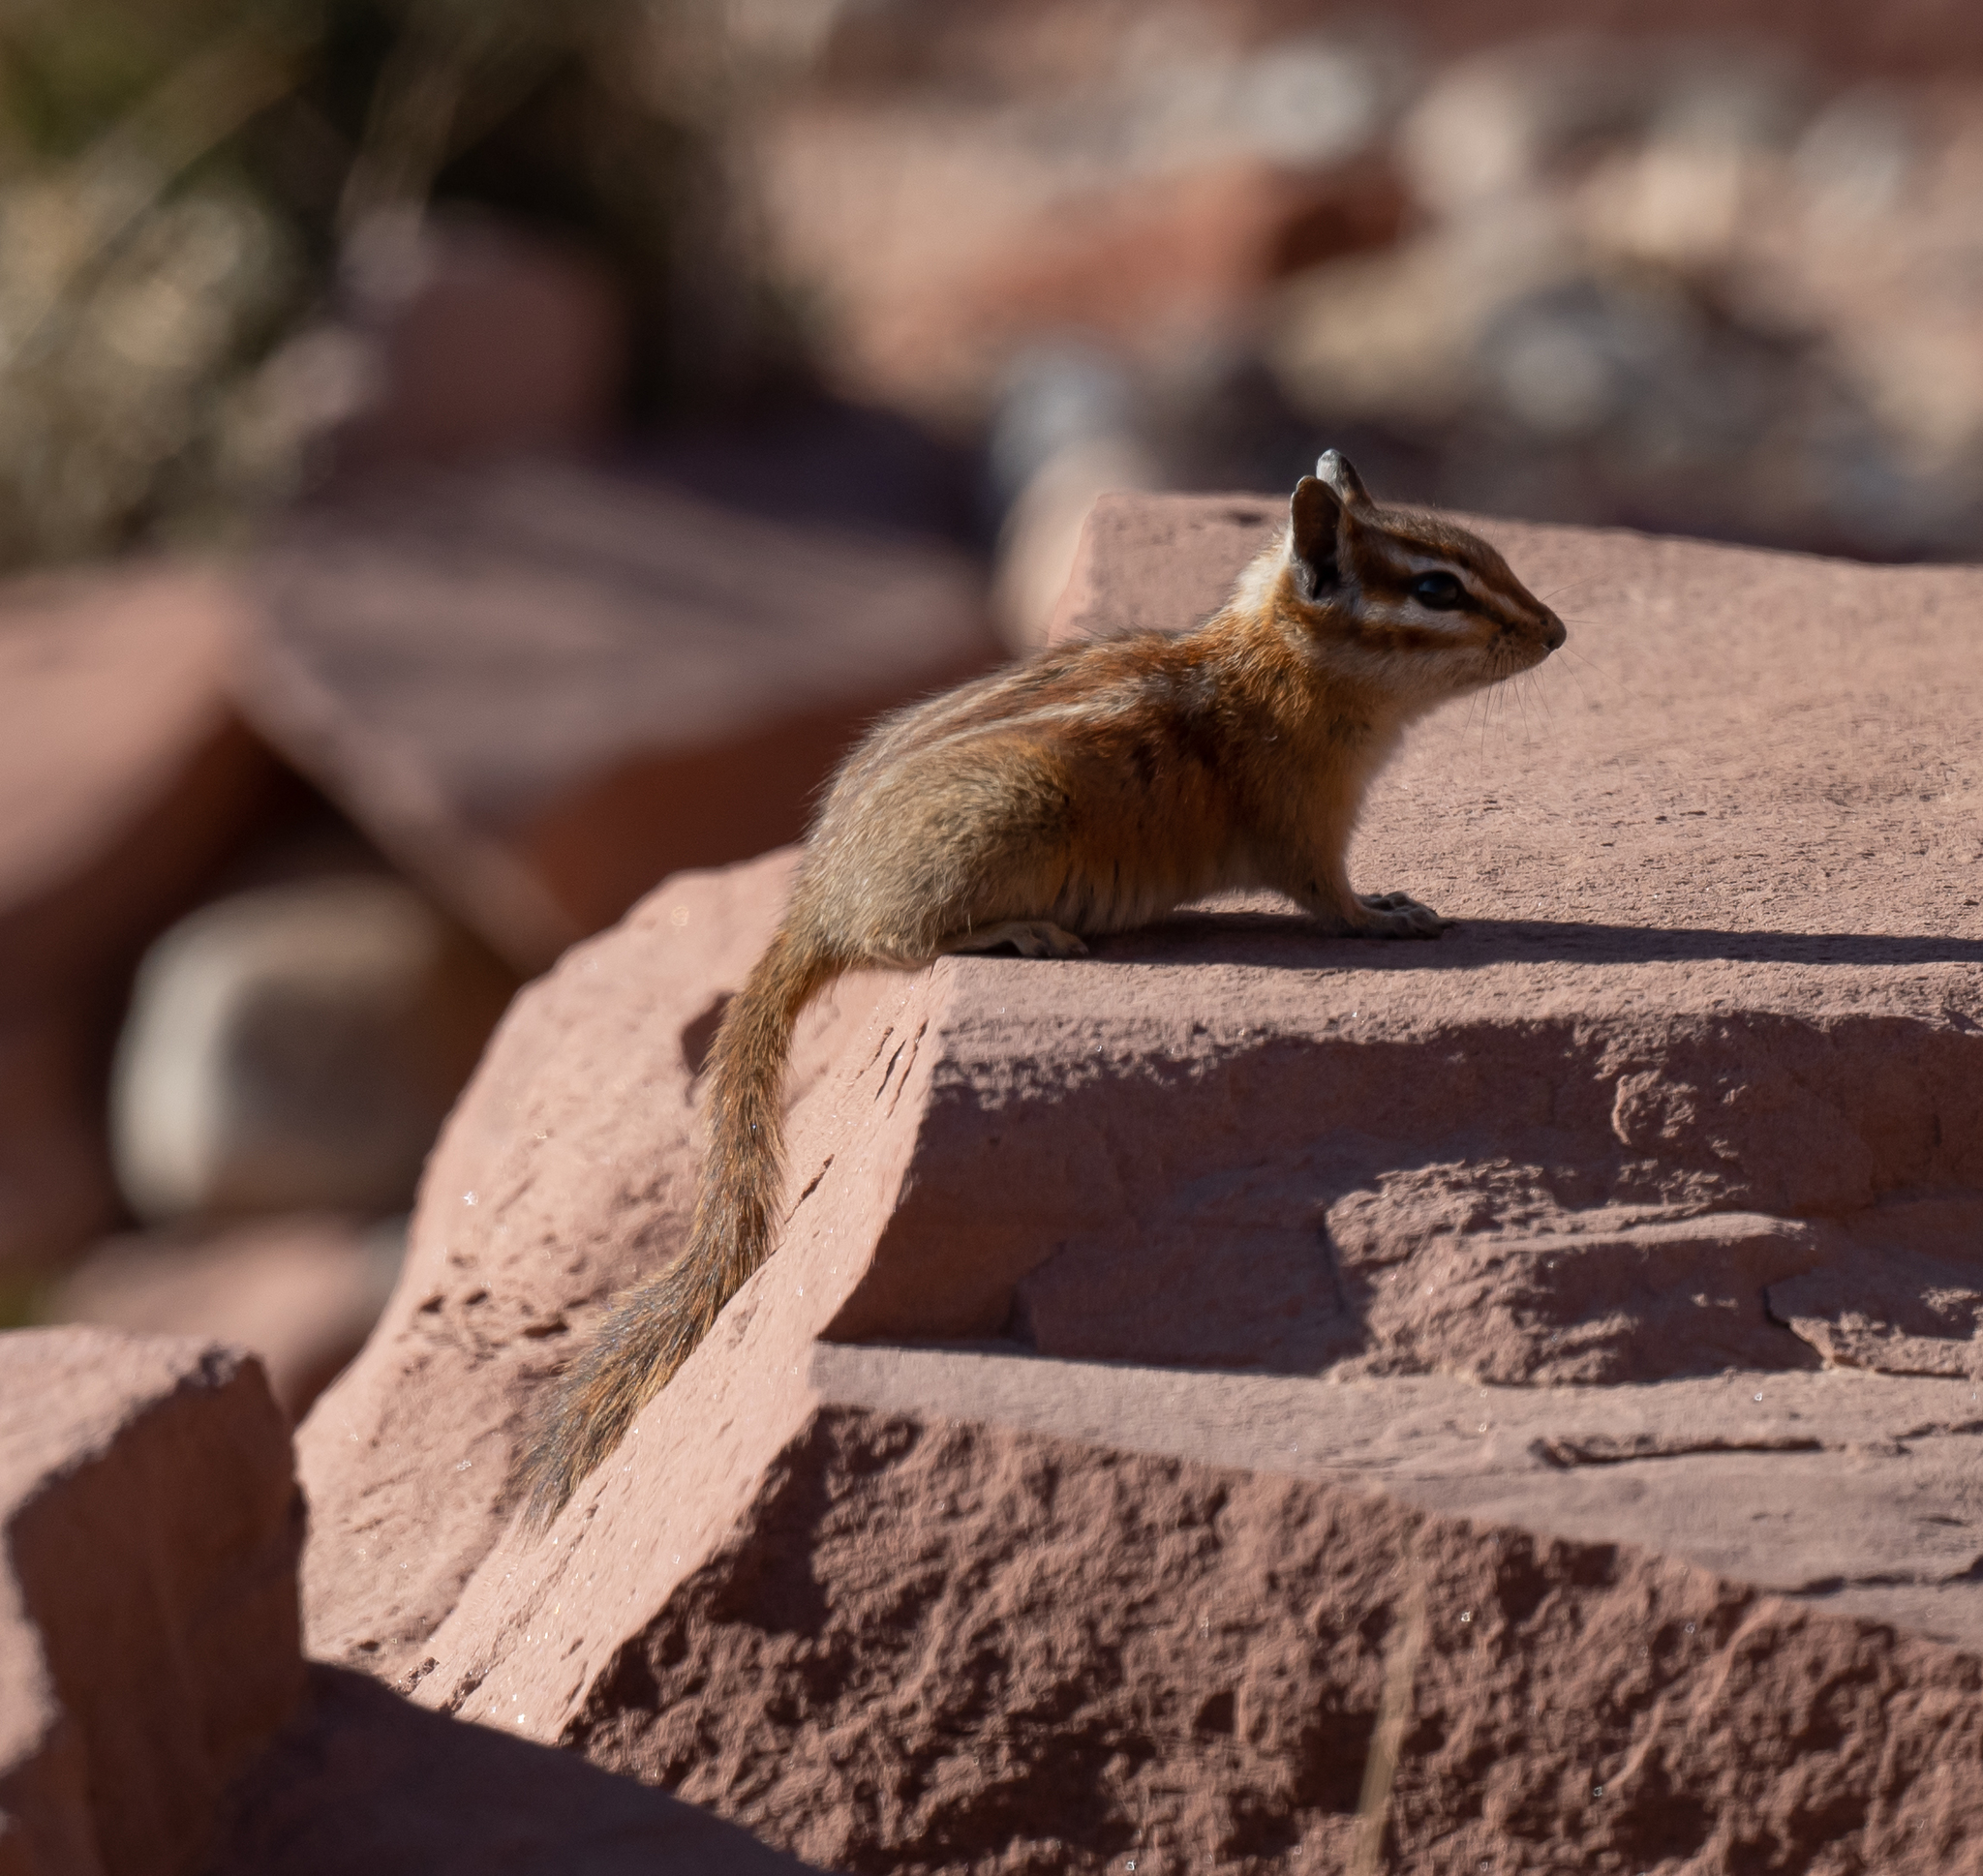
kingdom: Animalia
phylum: Chordata
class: Mammalia
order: Rodentia
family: Sciuridae
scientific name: Sciuridae
